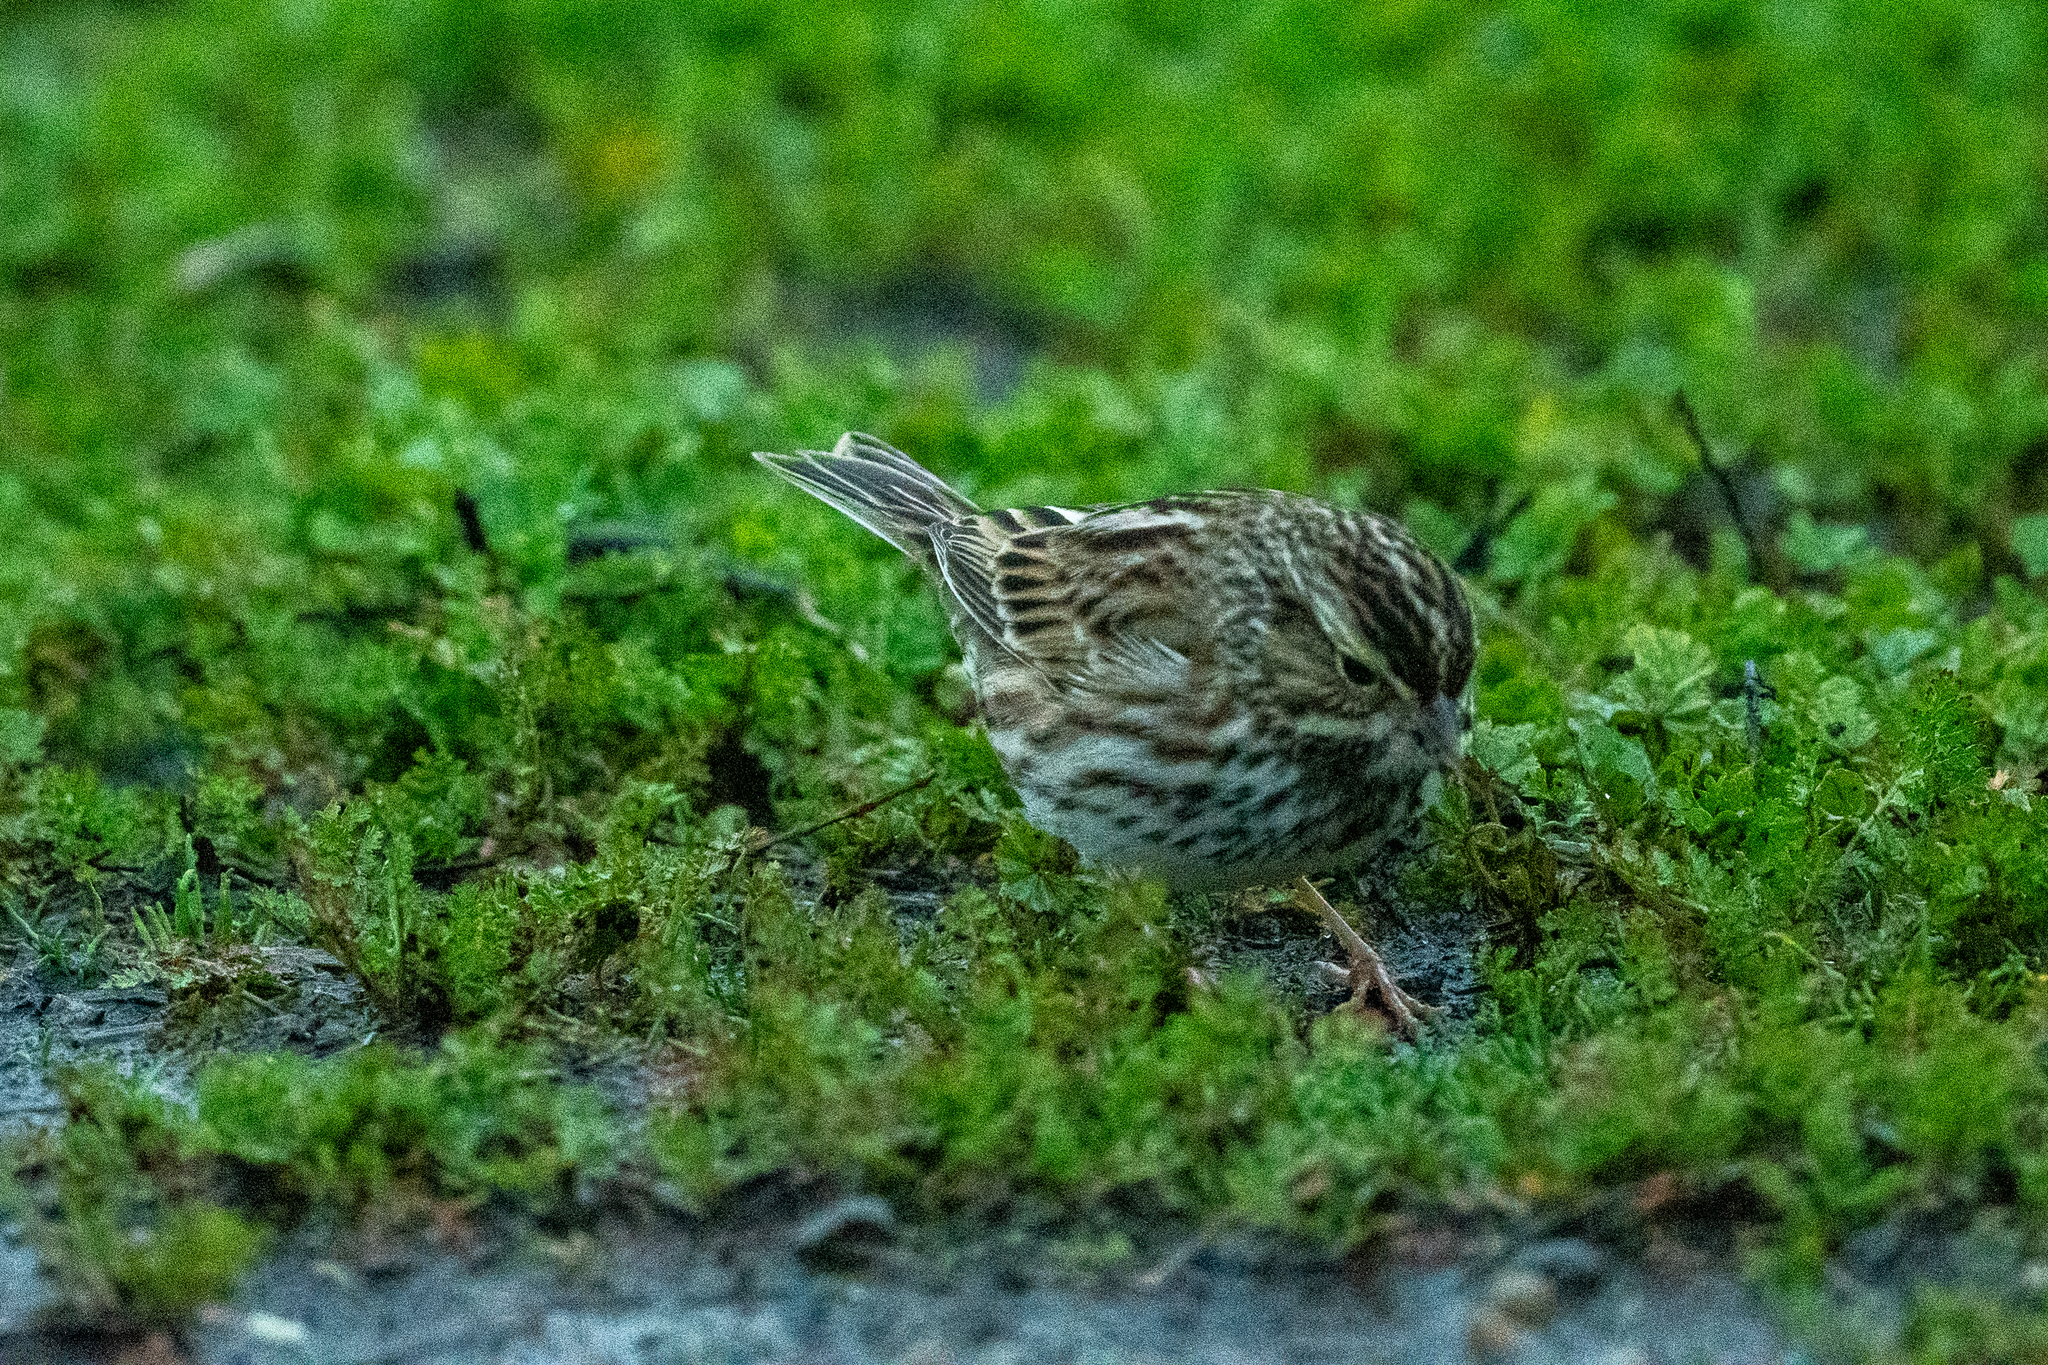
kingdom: Animalia
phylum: Chordata
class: Aves
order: Passeriformes
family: Passerellidae
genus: Passerculus
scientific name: Passerculus sandwichensis
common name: Savannah sparrow
